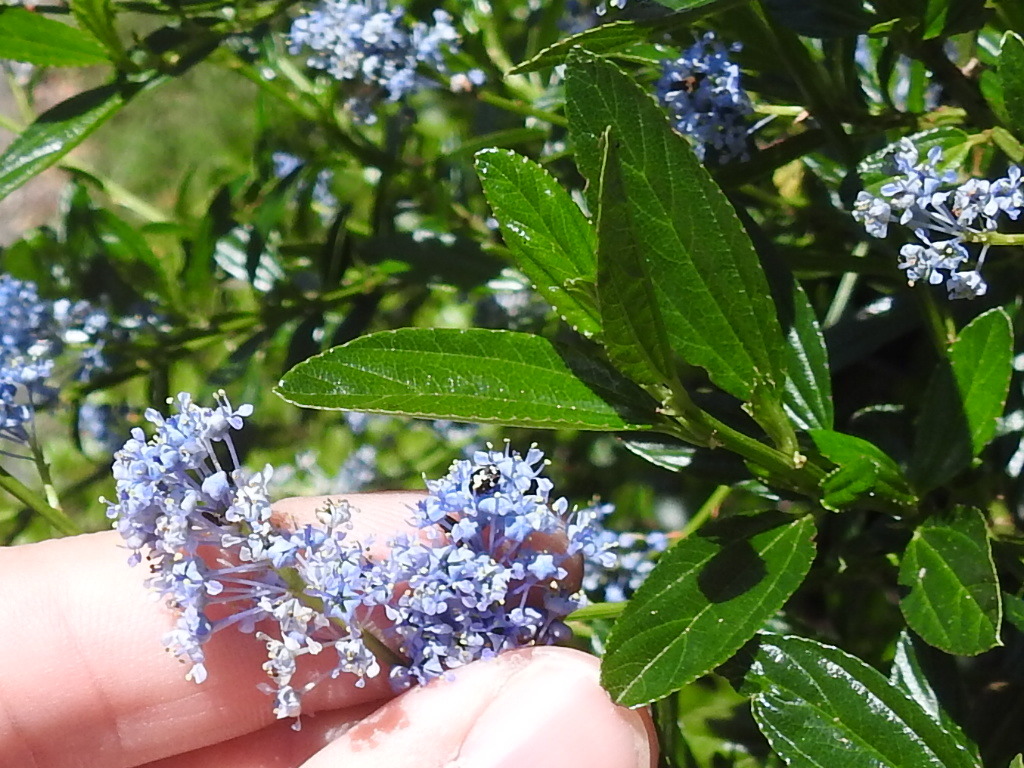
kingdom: Plantae
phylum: Tracheophyta
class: Magnoliopsida
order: Rosales
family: Rhamnaceae
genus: Ceanothus
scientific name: Ceanothus thyrsiflorus
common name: California-lilac
